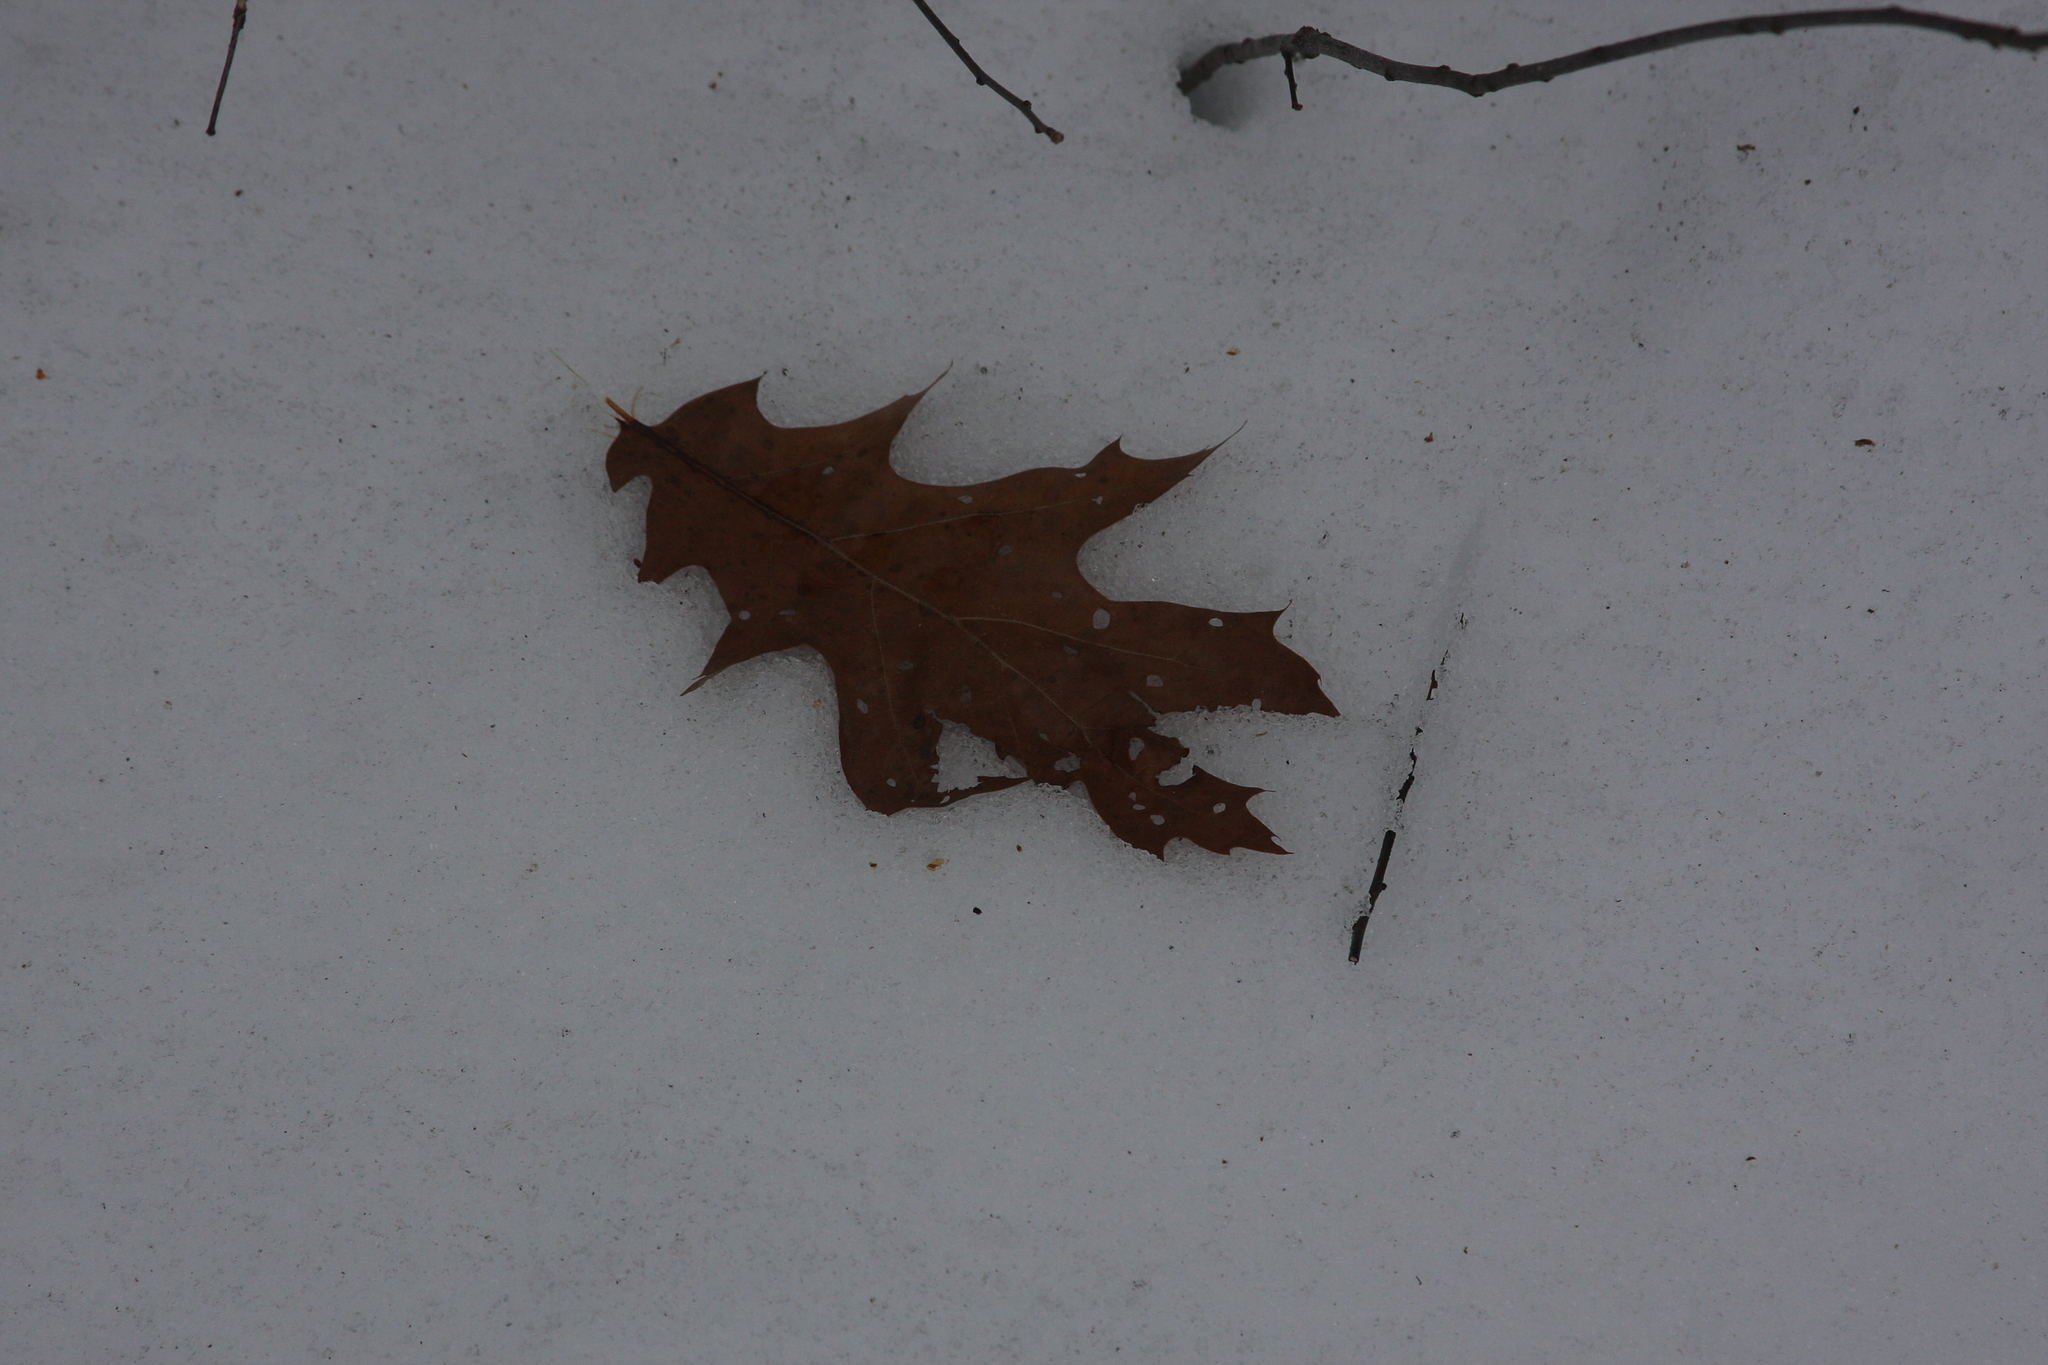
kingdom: Plantae
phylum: Tracheophyta
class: Magnoliopsida
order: Fagales
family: Fagaceae
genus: Quercus
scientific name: Quercus rubra
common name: Red oak
